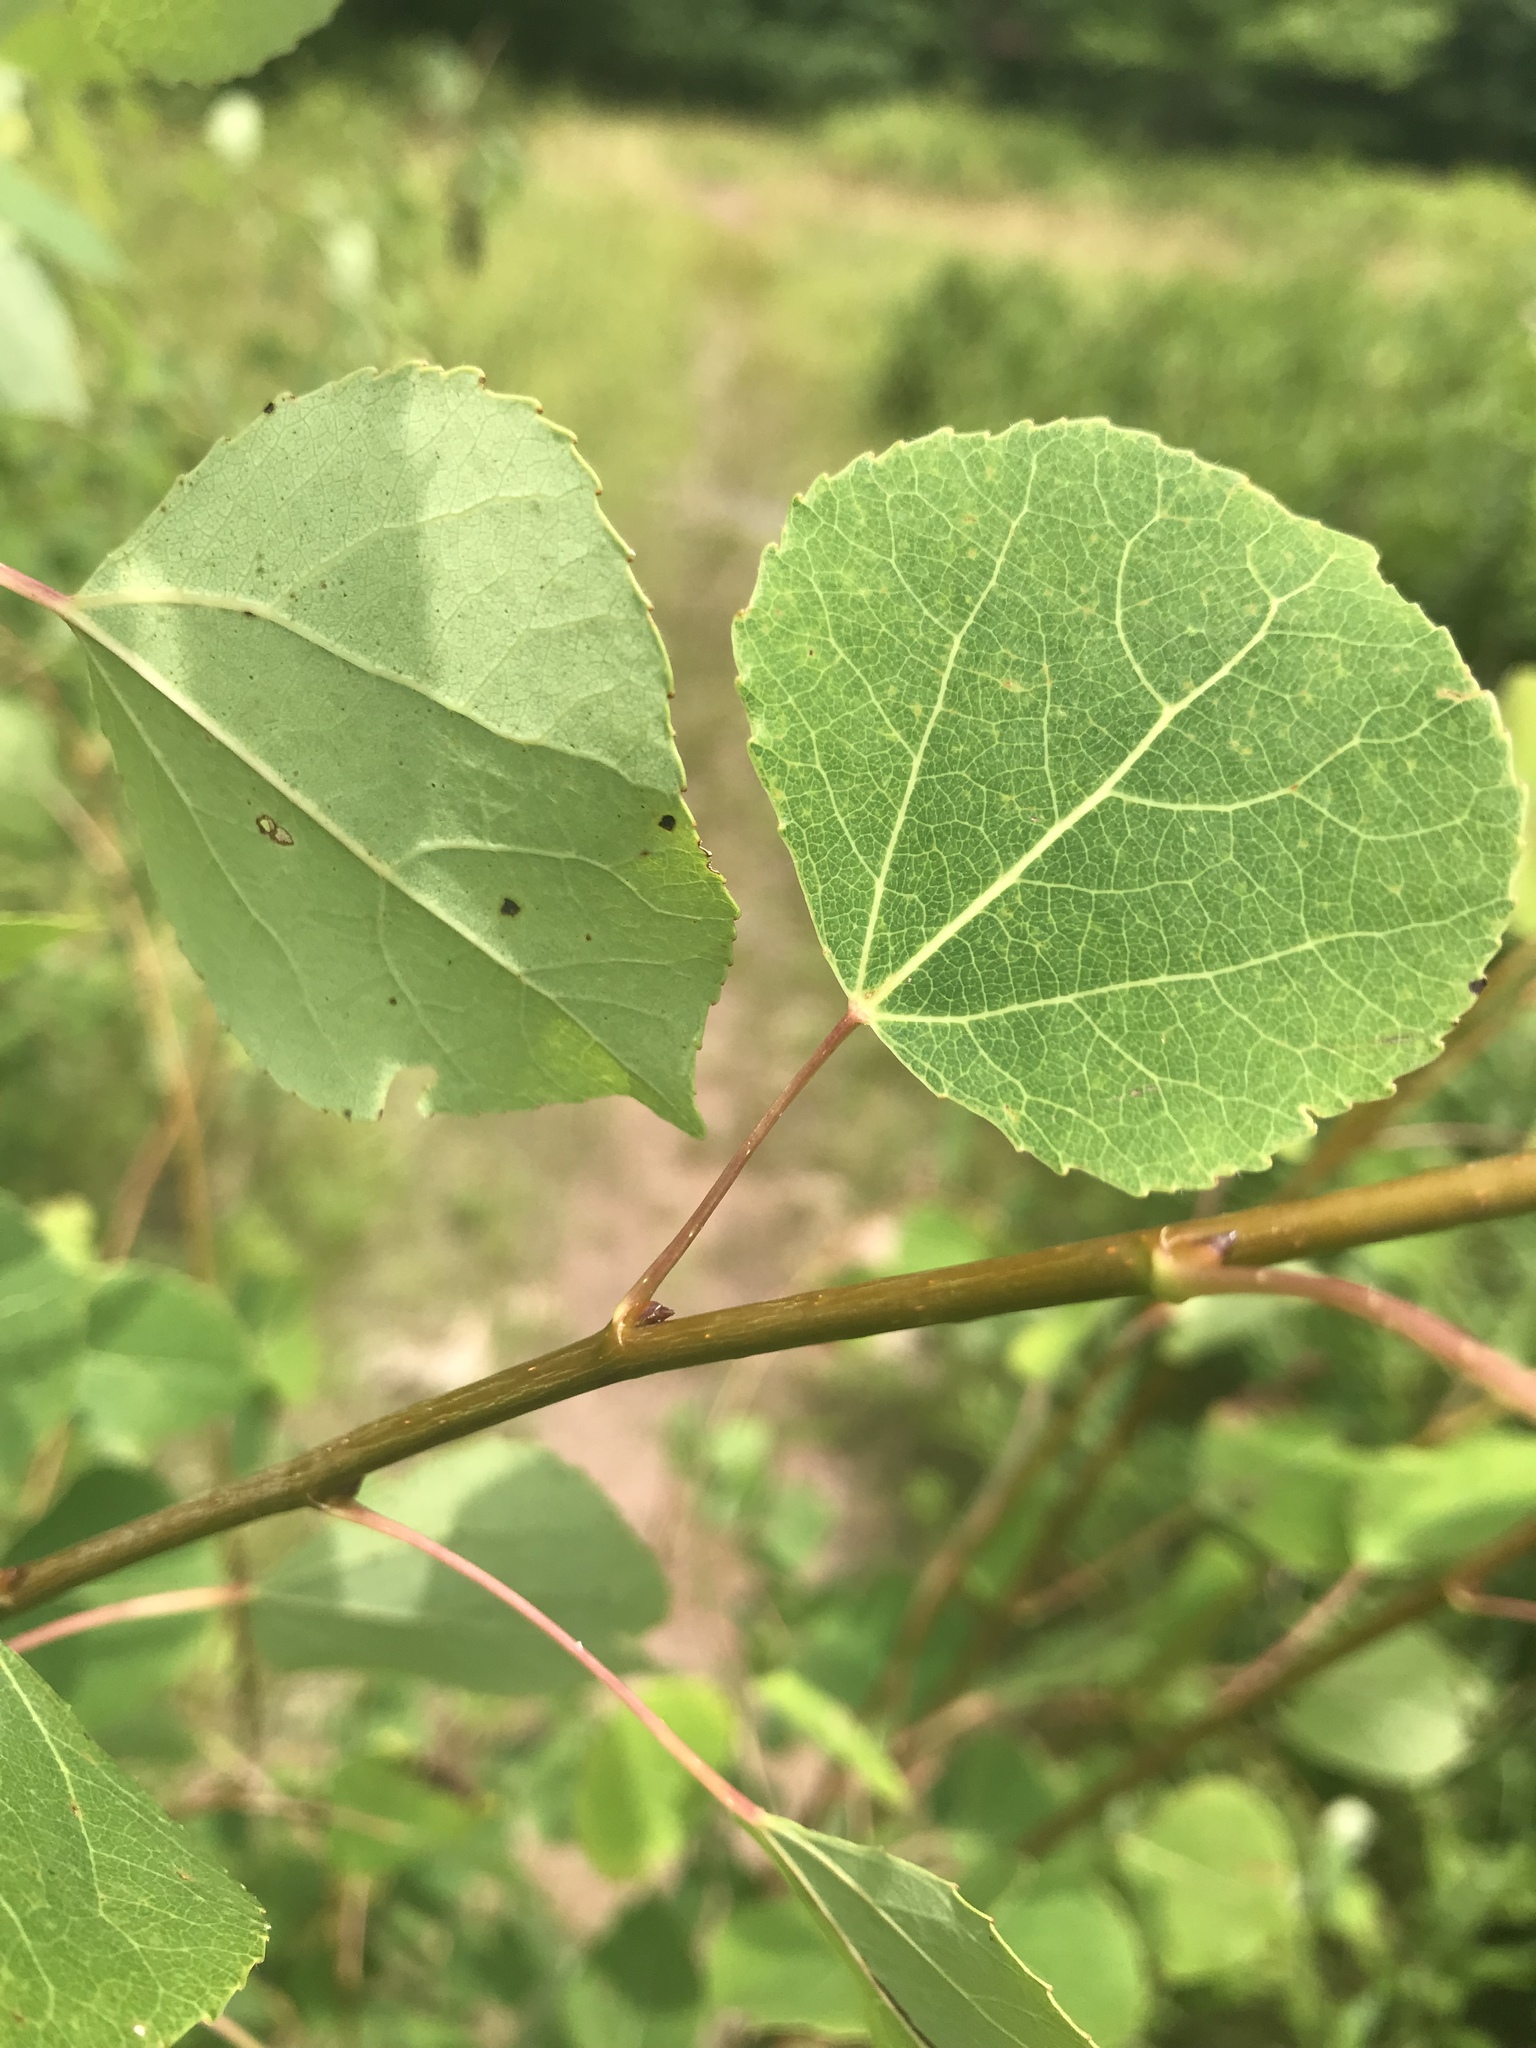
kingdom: Plantae
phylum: Tracheophyta
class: Magnoliopsida
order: Malpighiales
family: Salicaceae
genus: Populus
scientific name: Populus tremuloides
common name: Quaking aspen
